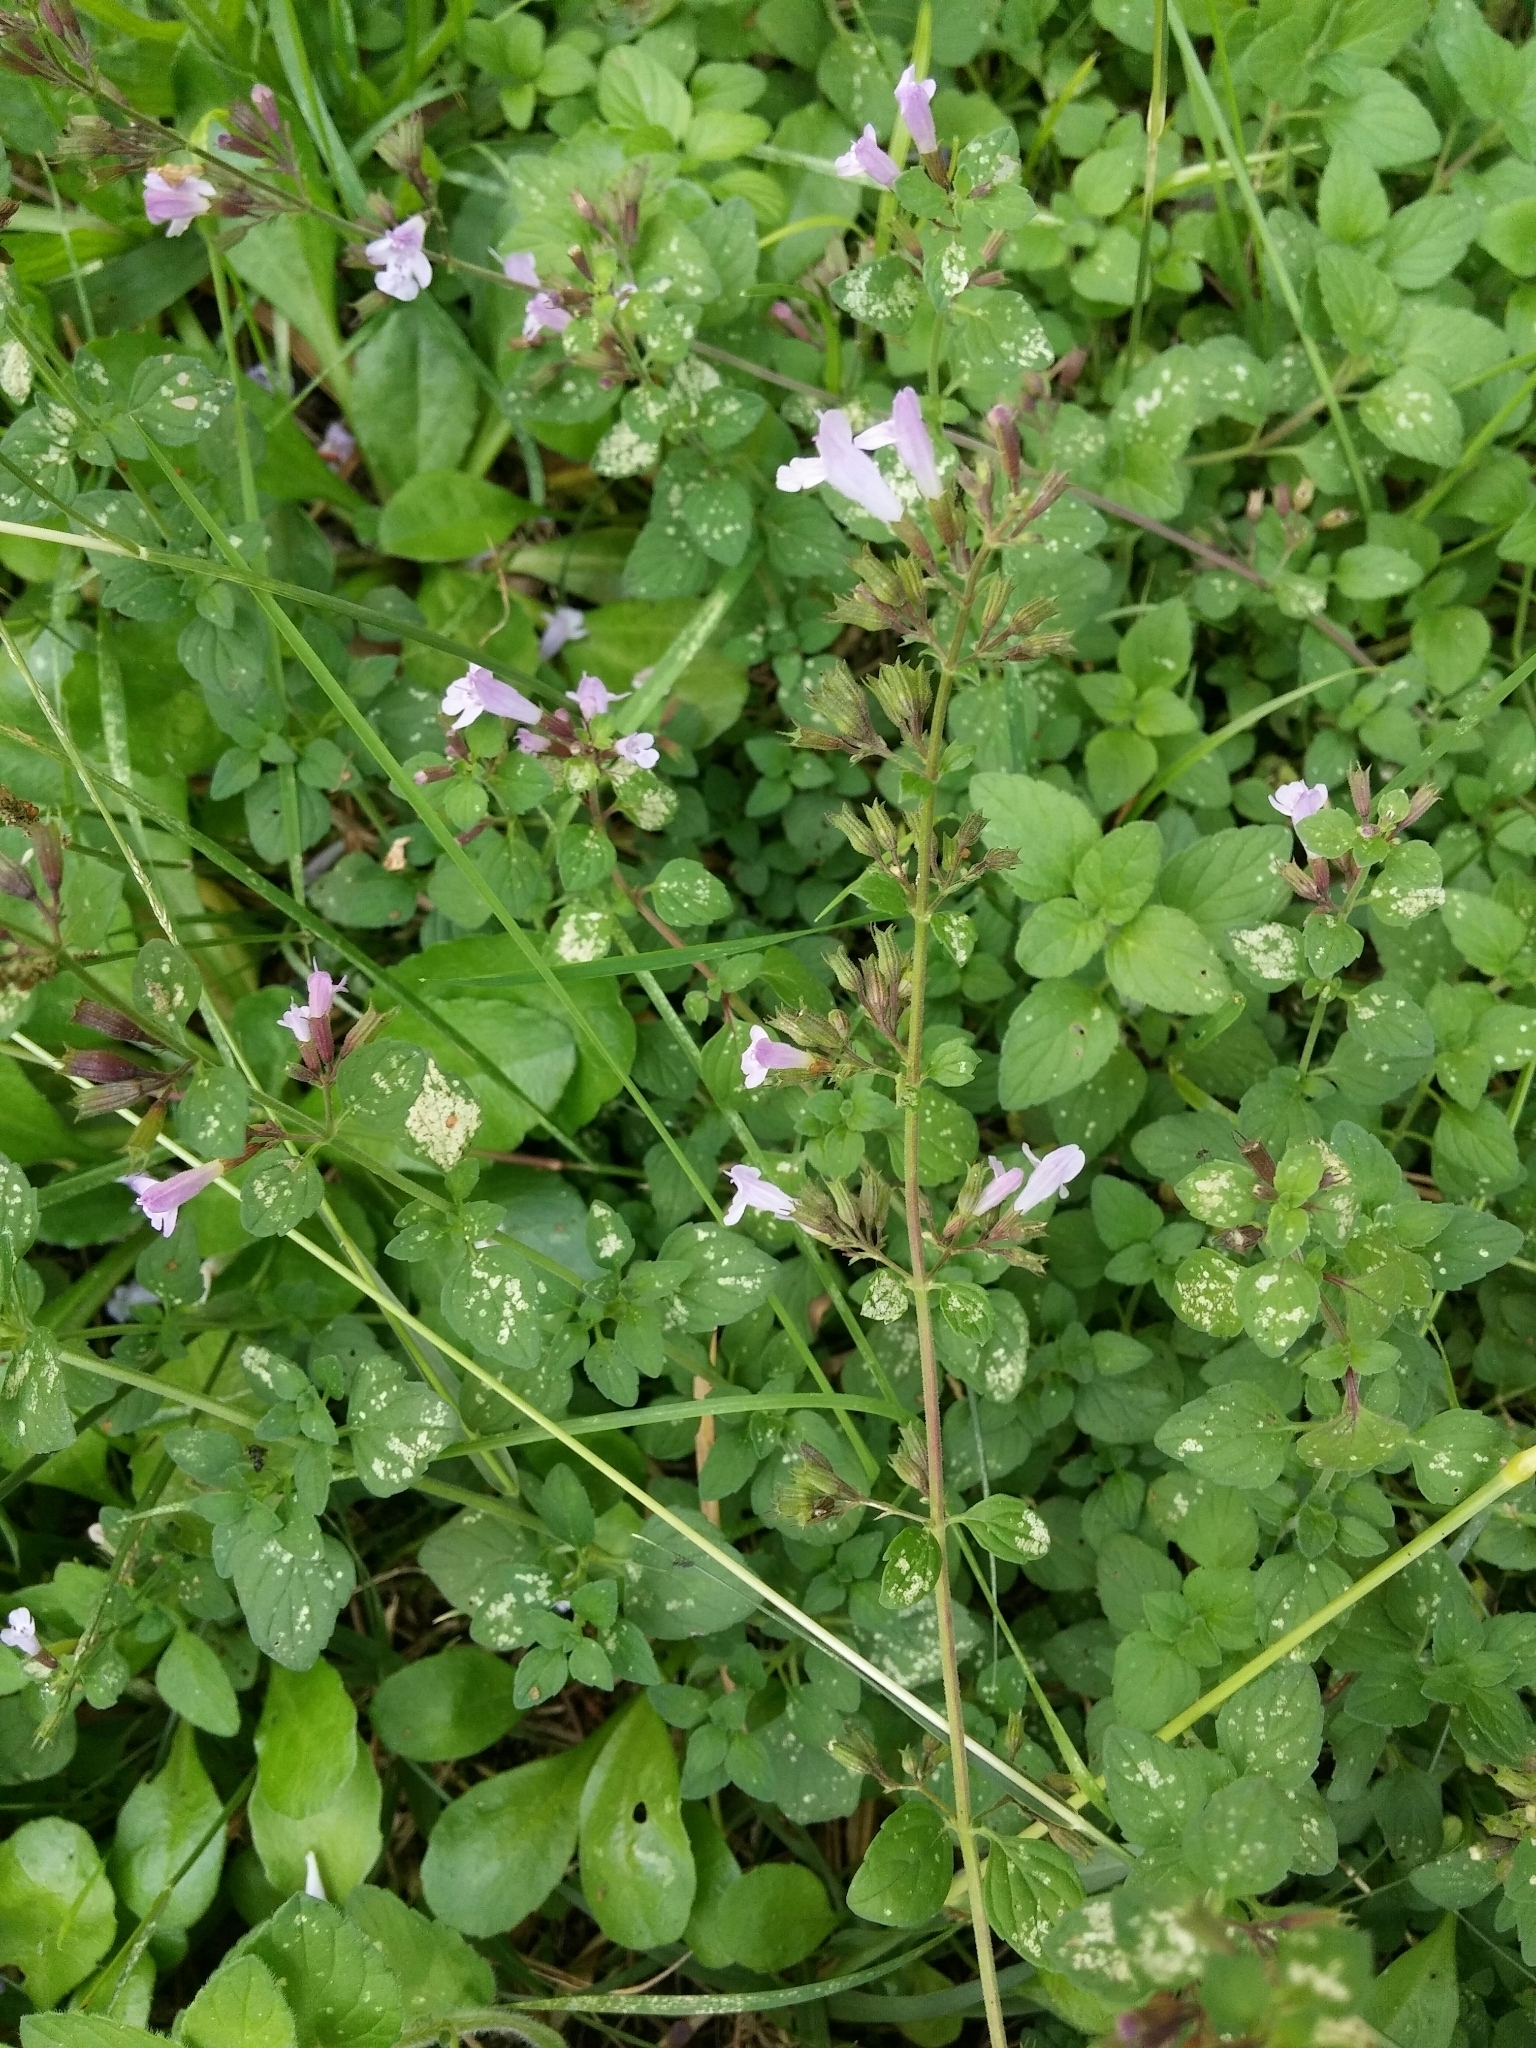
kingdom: Plantae
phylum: Tracheophyta
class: Magnoliopsida
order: Lamiales
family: Lamiaceae
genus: Clinopodium
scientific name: Clinopodium nepeta
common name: Lesser calamint
